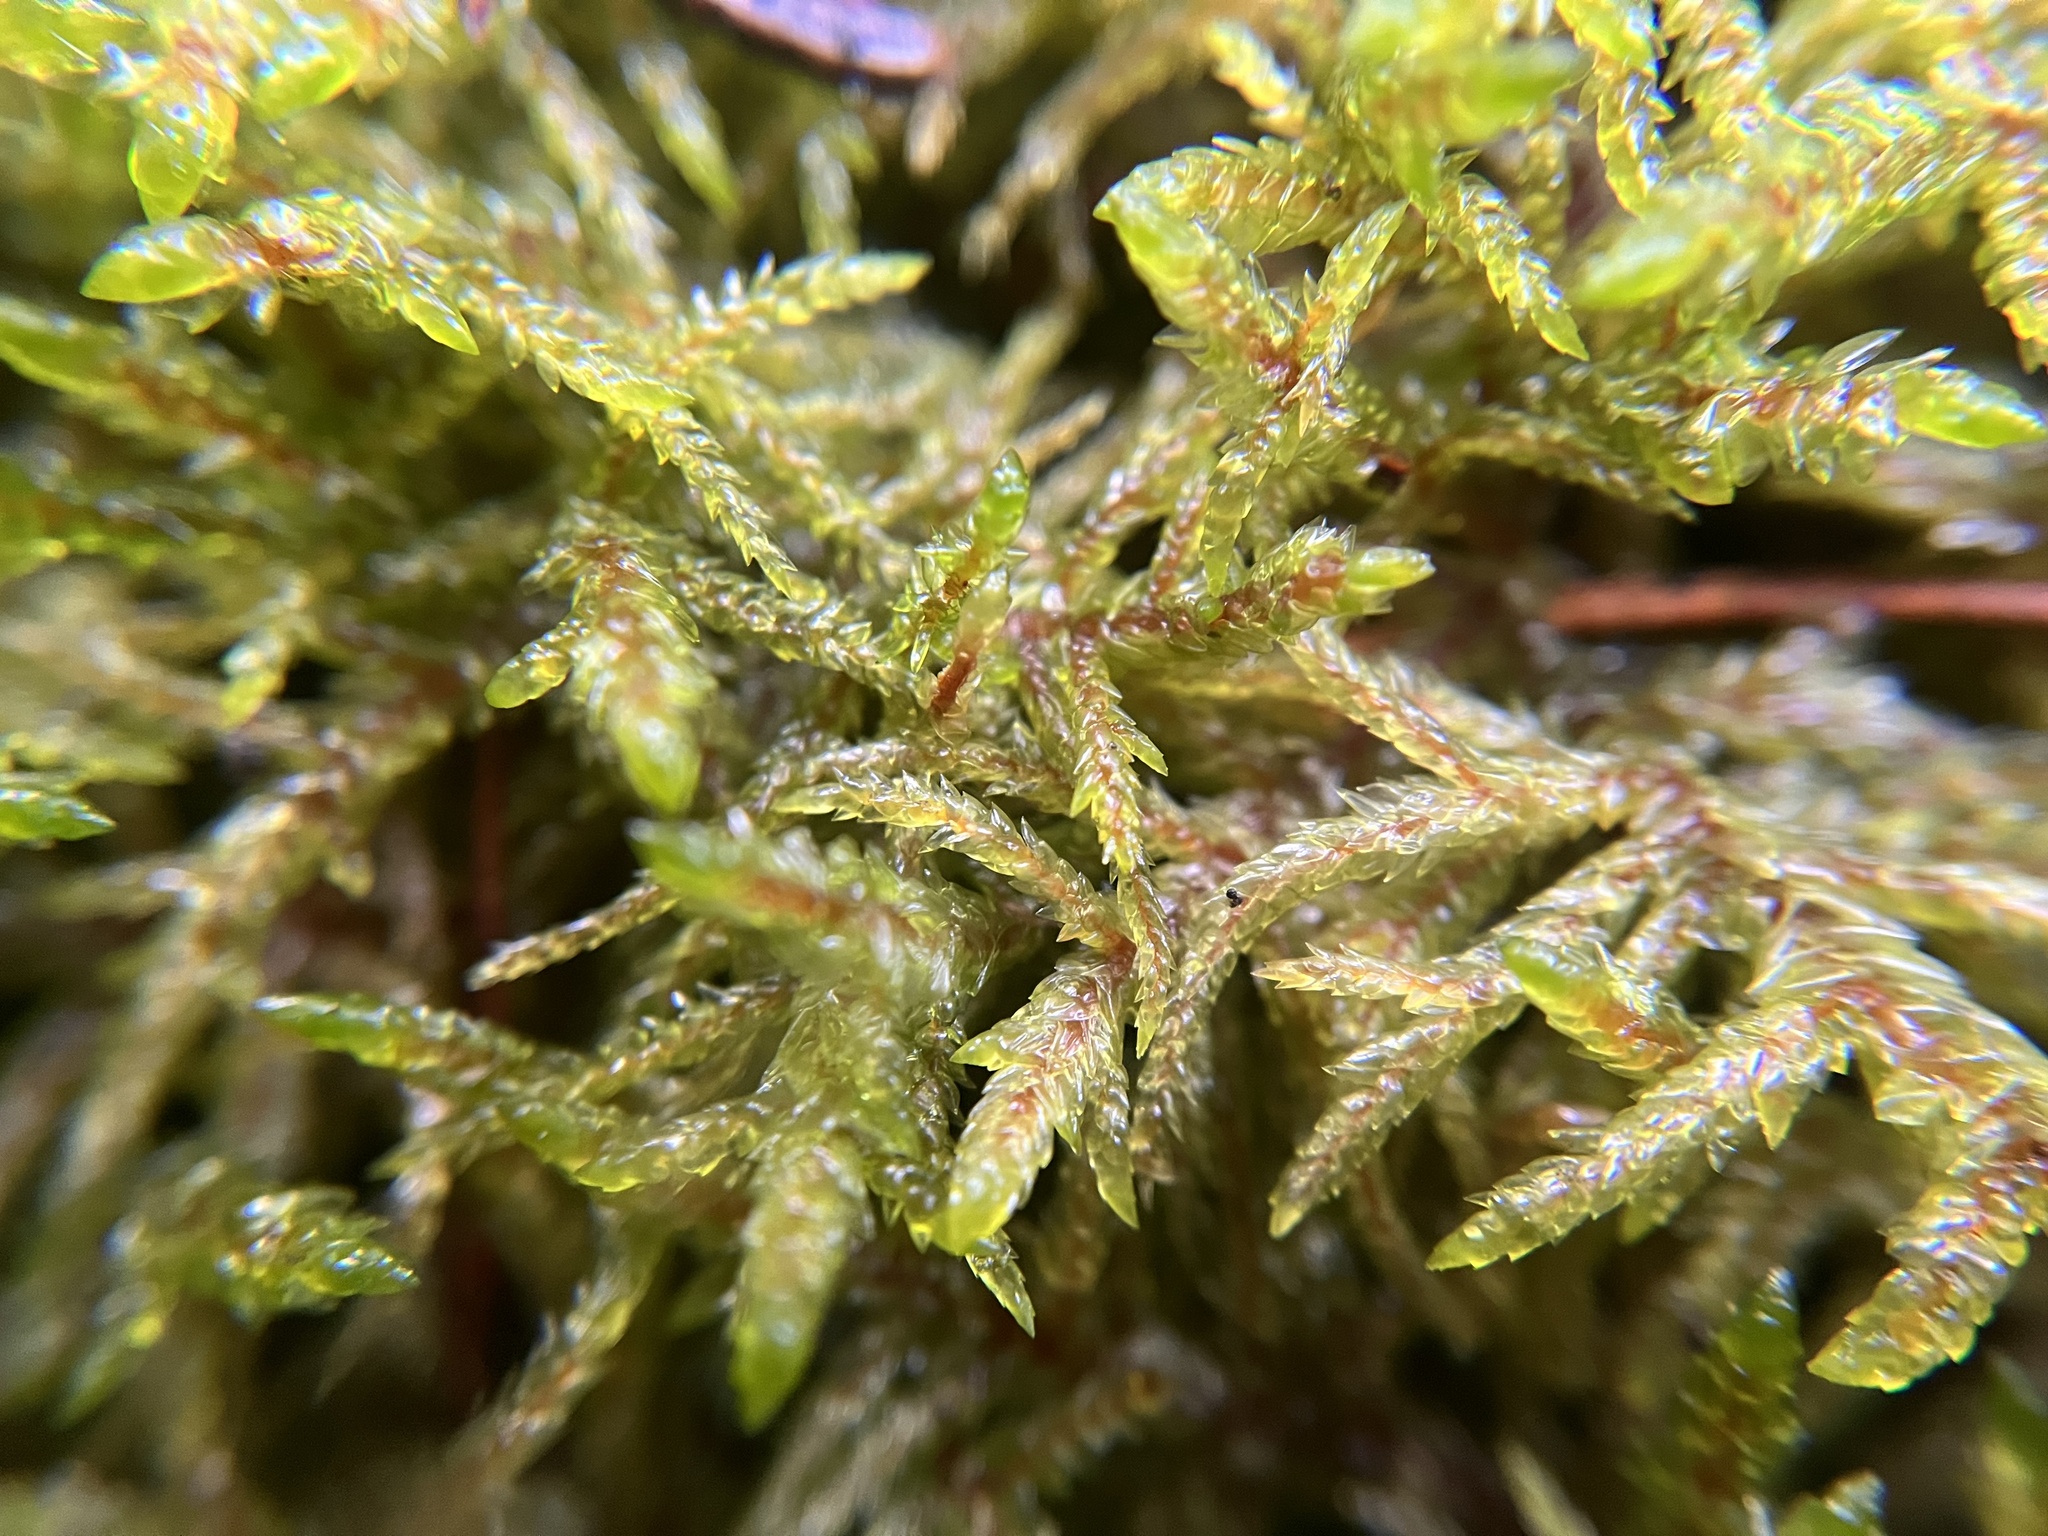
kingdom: Plantae
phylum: Bryophyta
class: Bryopsida
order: Hypnales
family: Hylocomiaceae
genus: Pleurozium
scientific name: Pleurozium schreberi
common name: Red-stemmed feather moss
